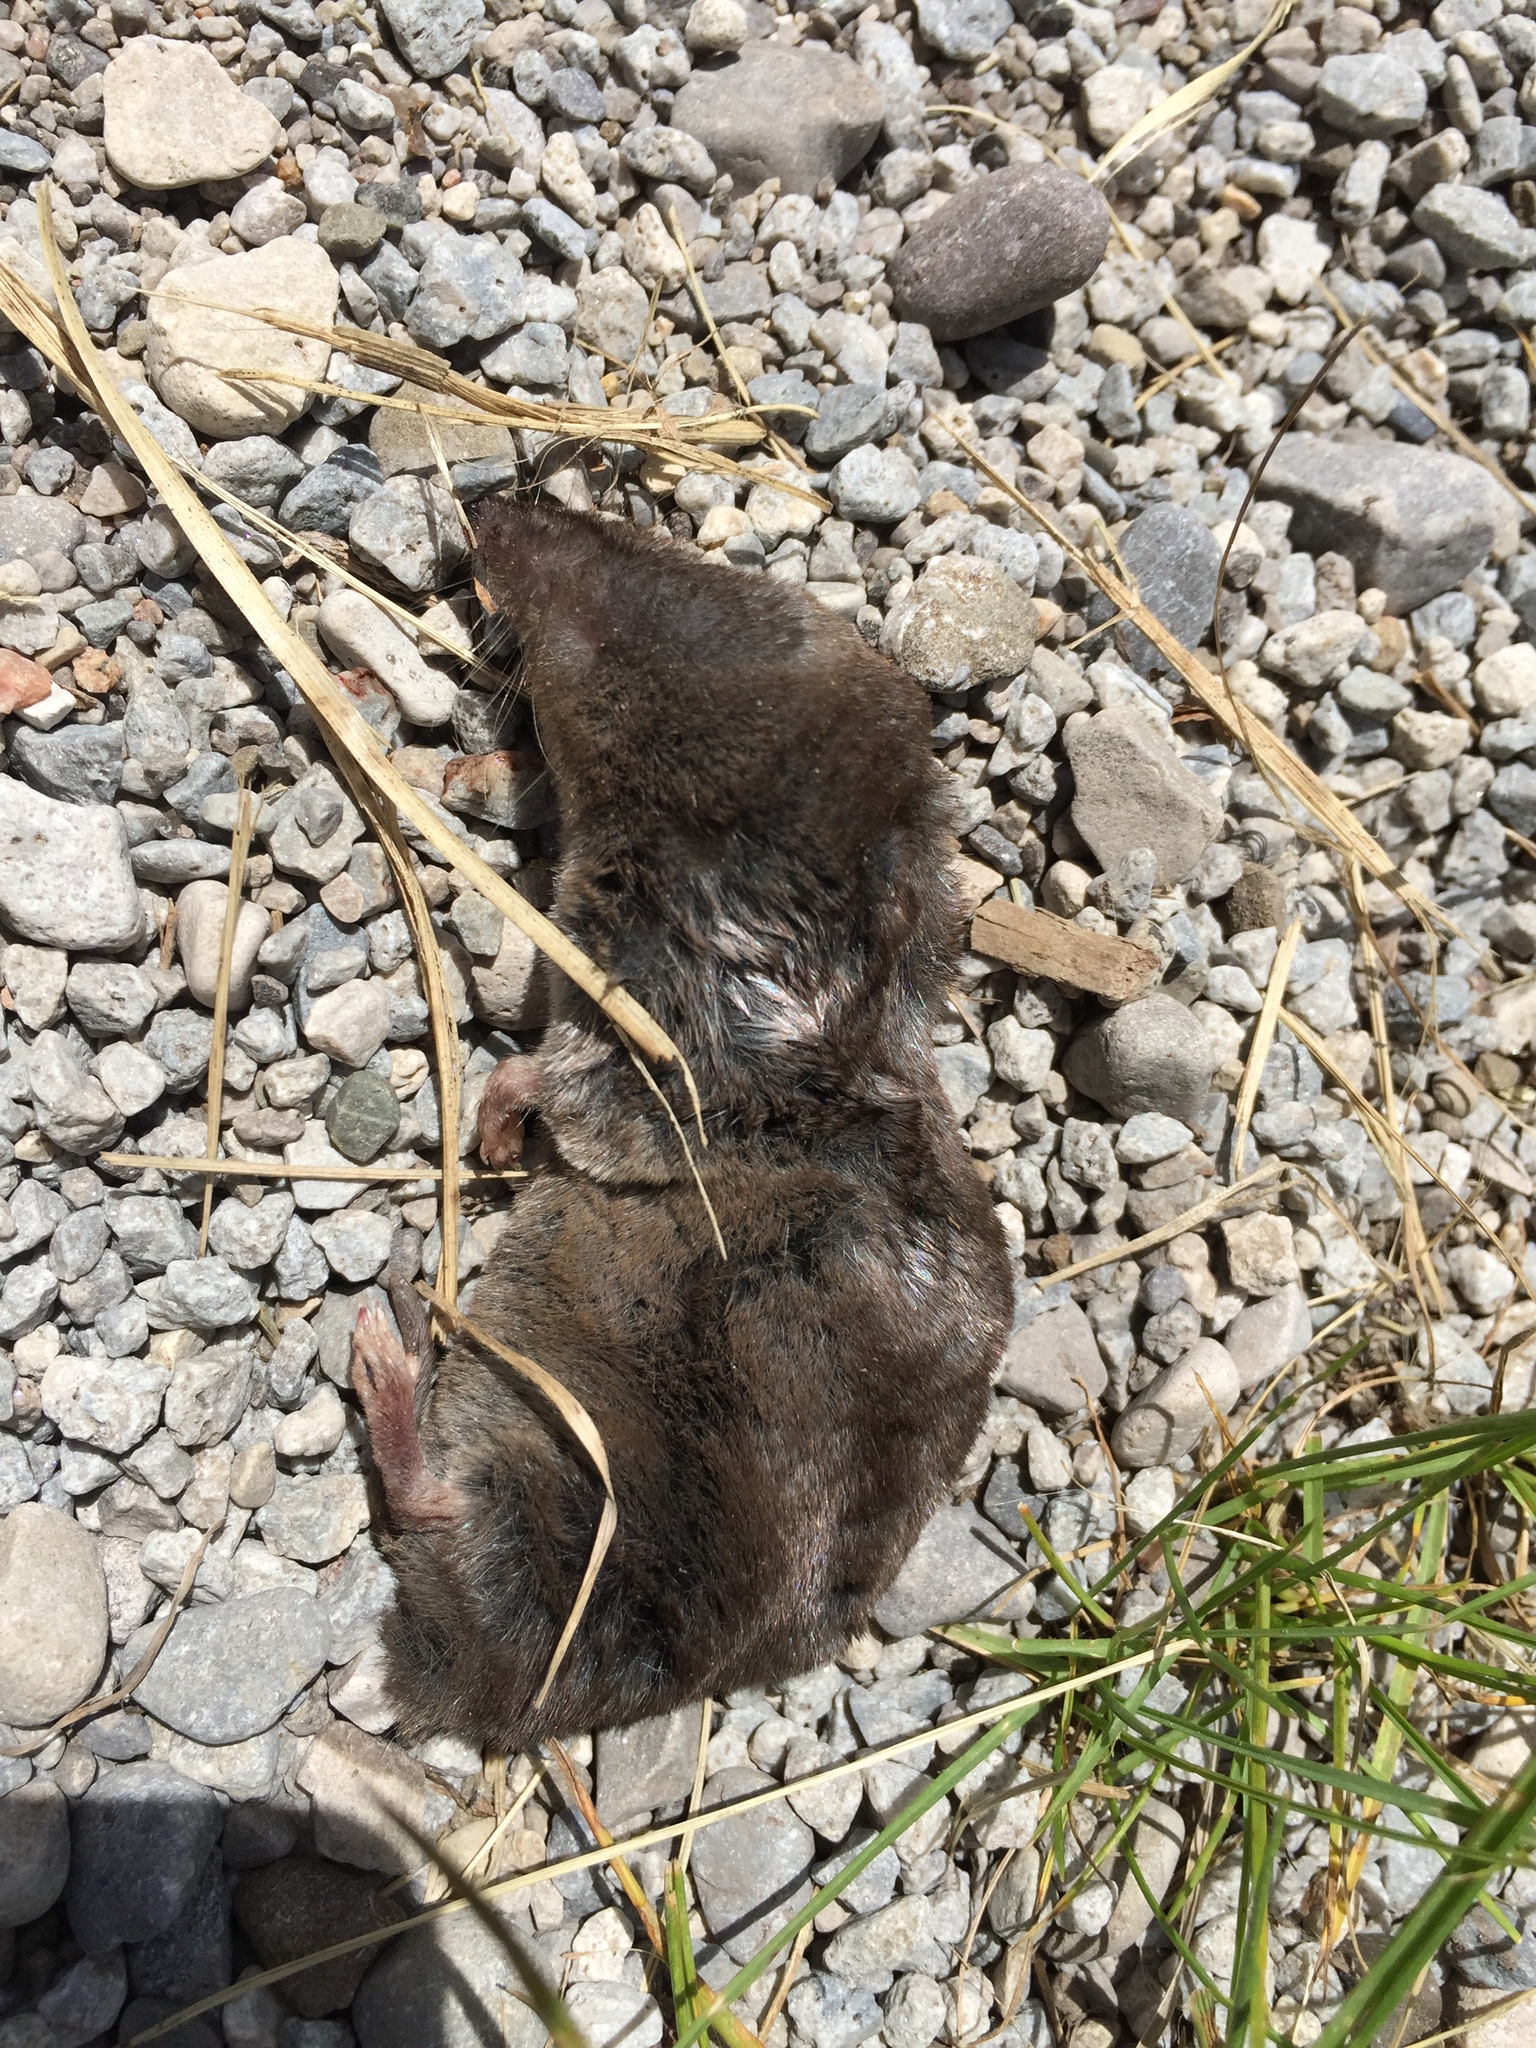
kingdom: Animalia
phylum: Chordata
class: Mammalia
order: Soricomorpha
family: Soricidae
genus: Blarina
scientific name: Blarina brevicauda
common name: Northern short-tailed shrew
